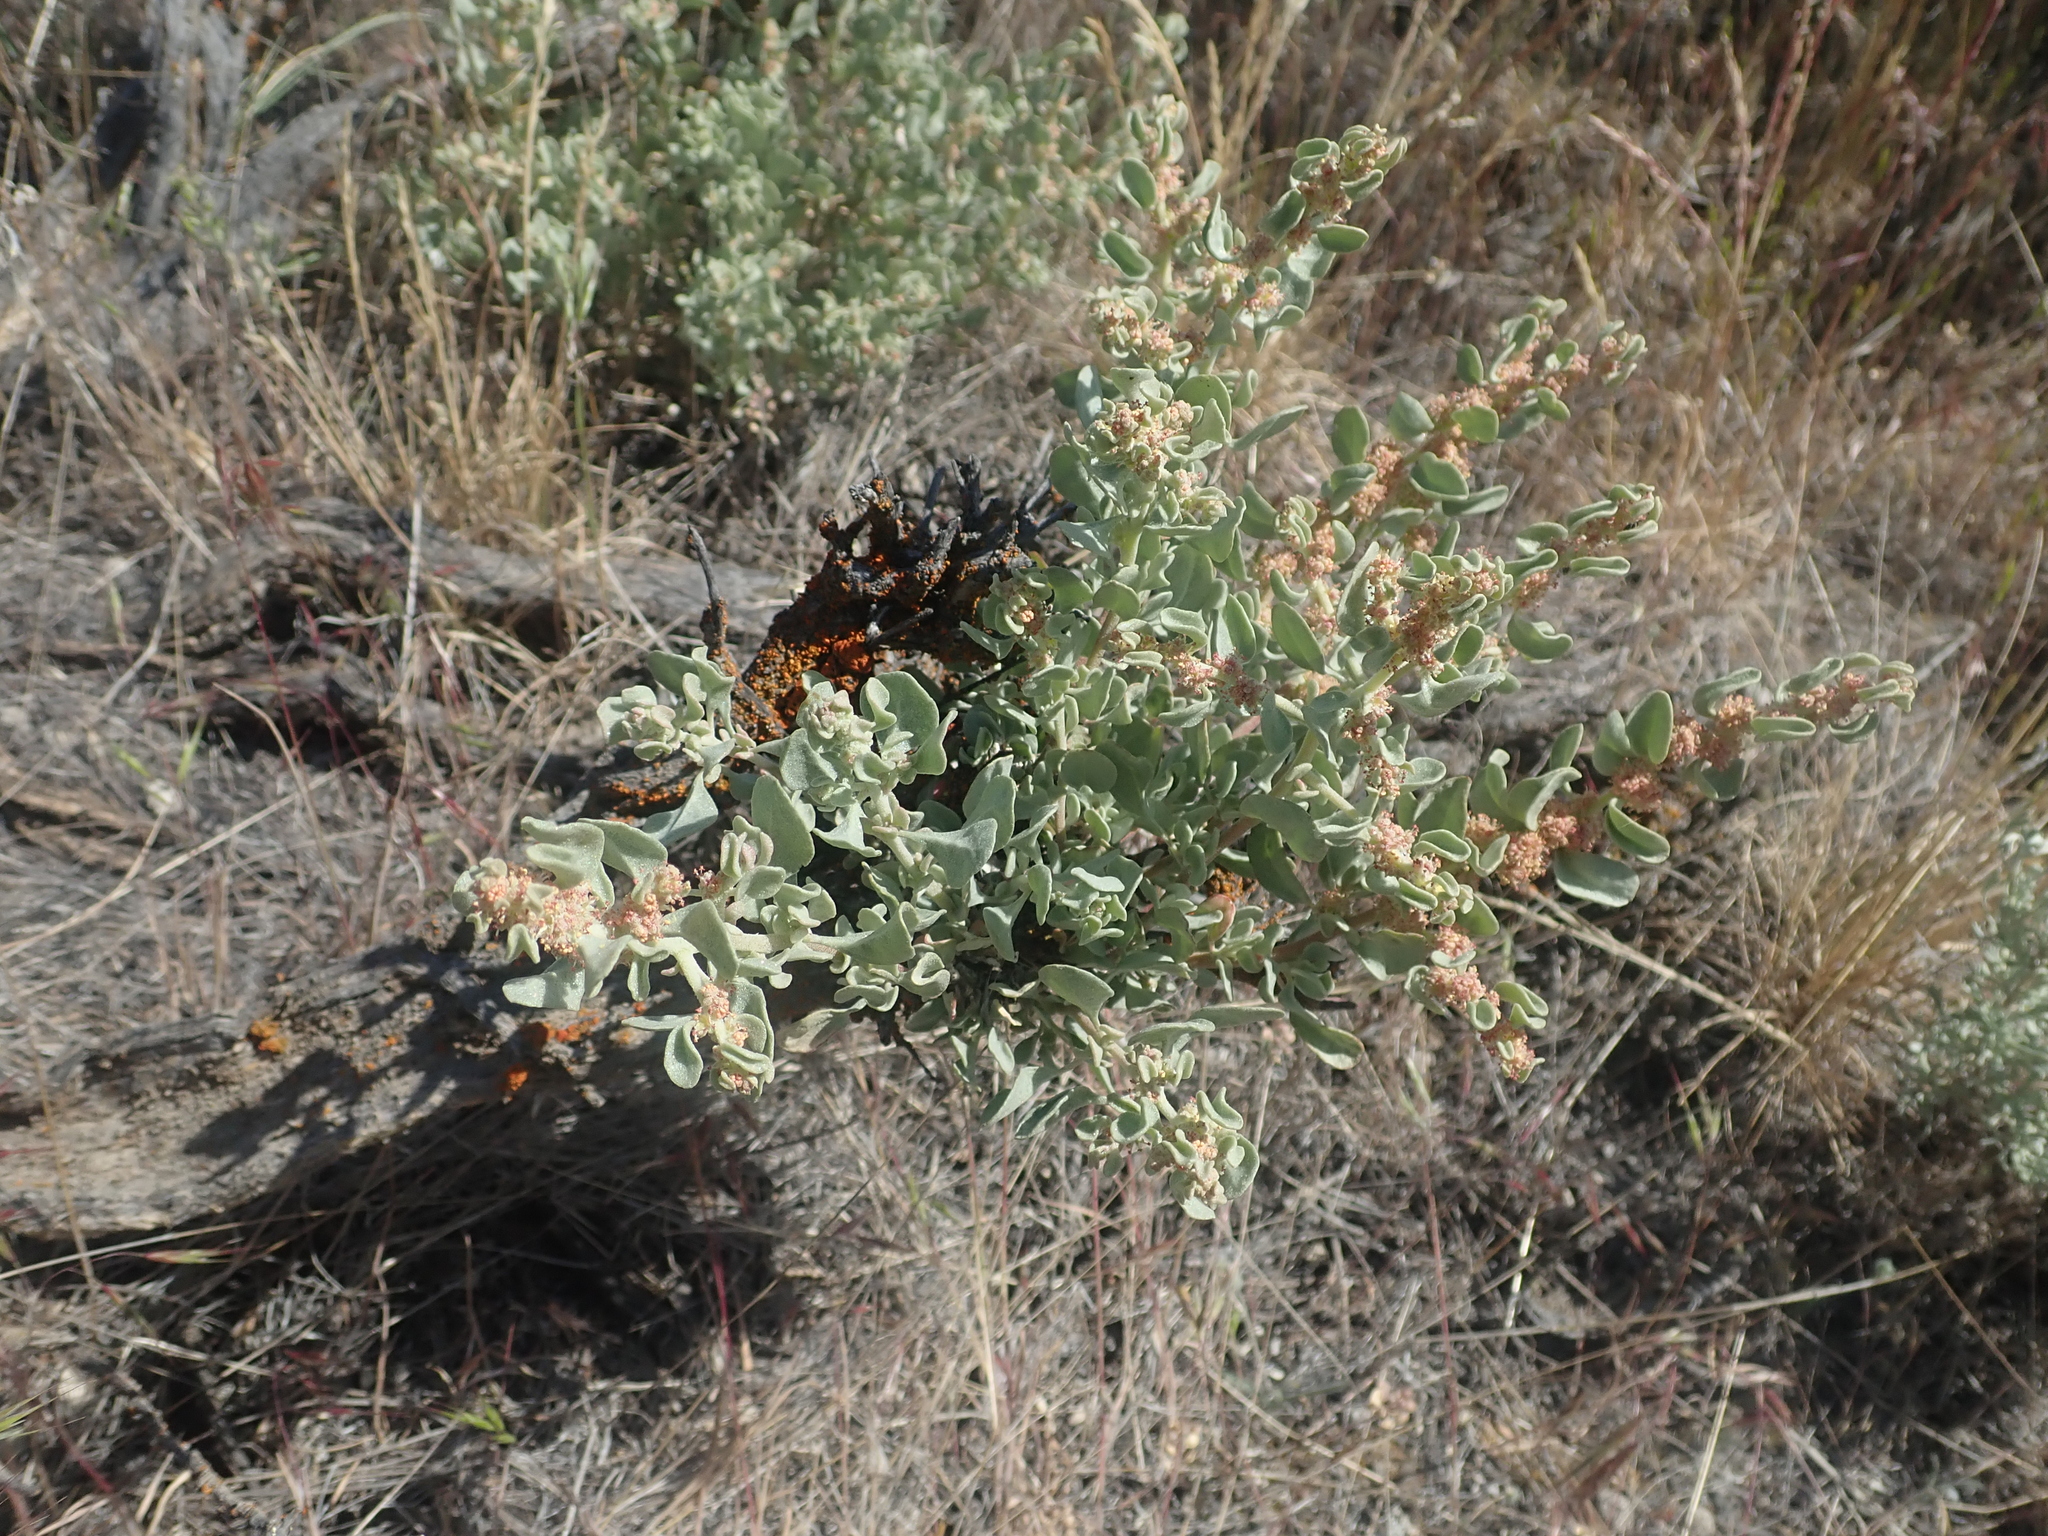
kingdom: Plantae
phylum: Tracheophyta
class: Magnoliopsida
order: Caryophyllales
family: Amaranthaceae
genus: Atriplex
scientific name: Atriplex confertifolia
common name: Shadscale
